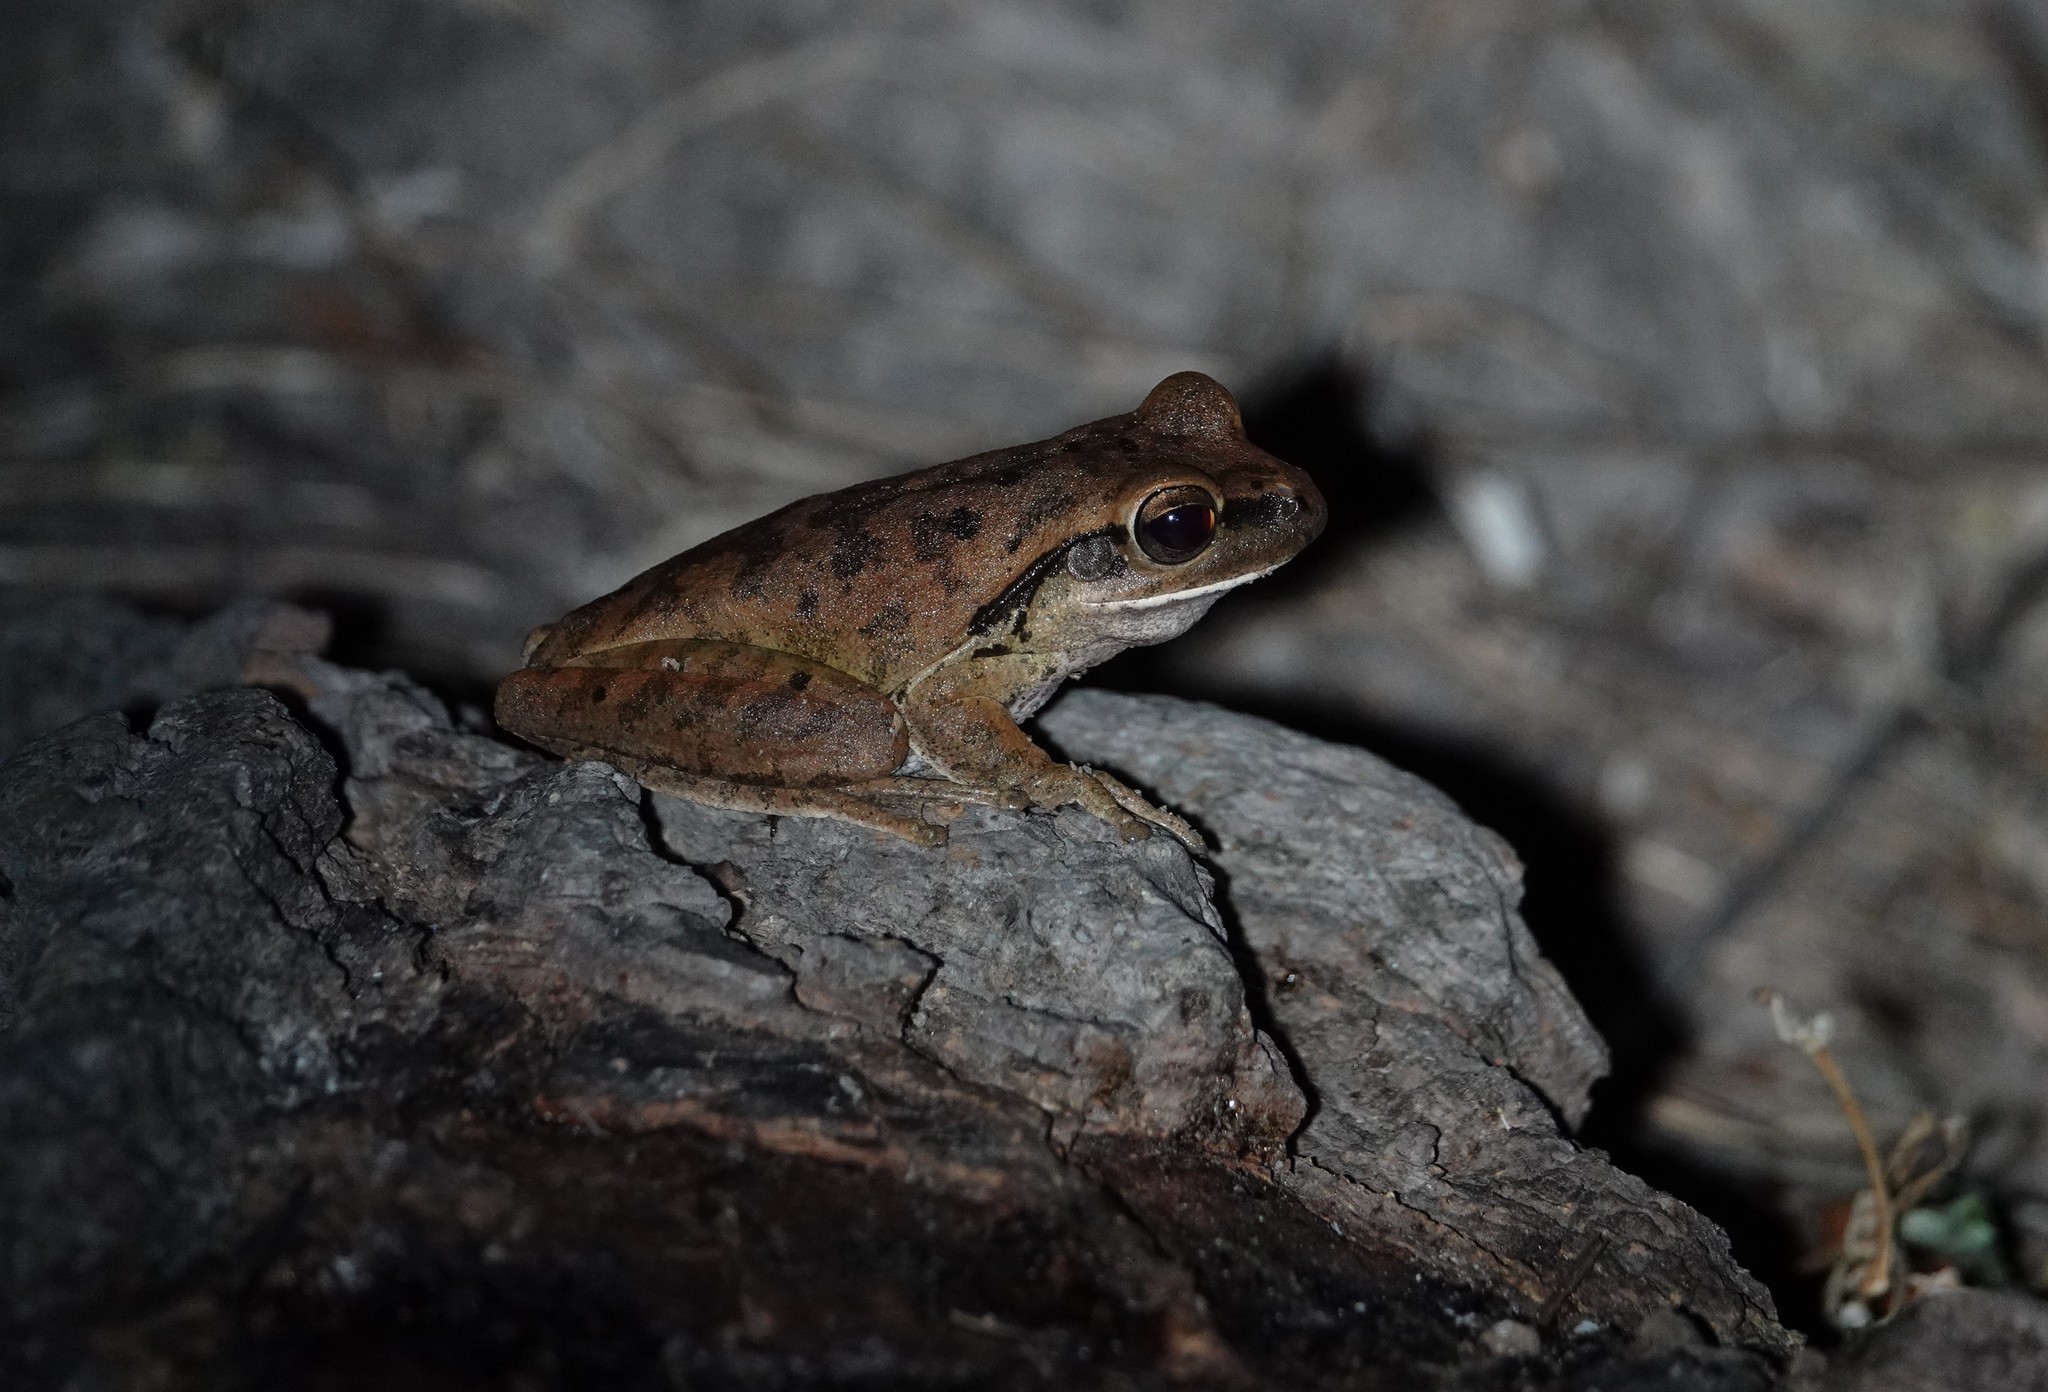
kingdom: Animalia
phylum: Chordata
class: Amphibia
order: Anura
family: Hylidae
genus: Boana
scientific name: Boana raniceps
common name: Chaco treefrog
